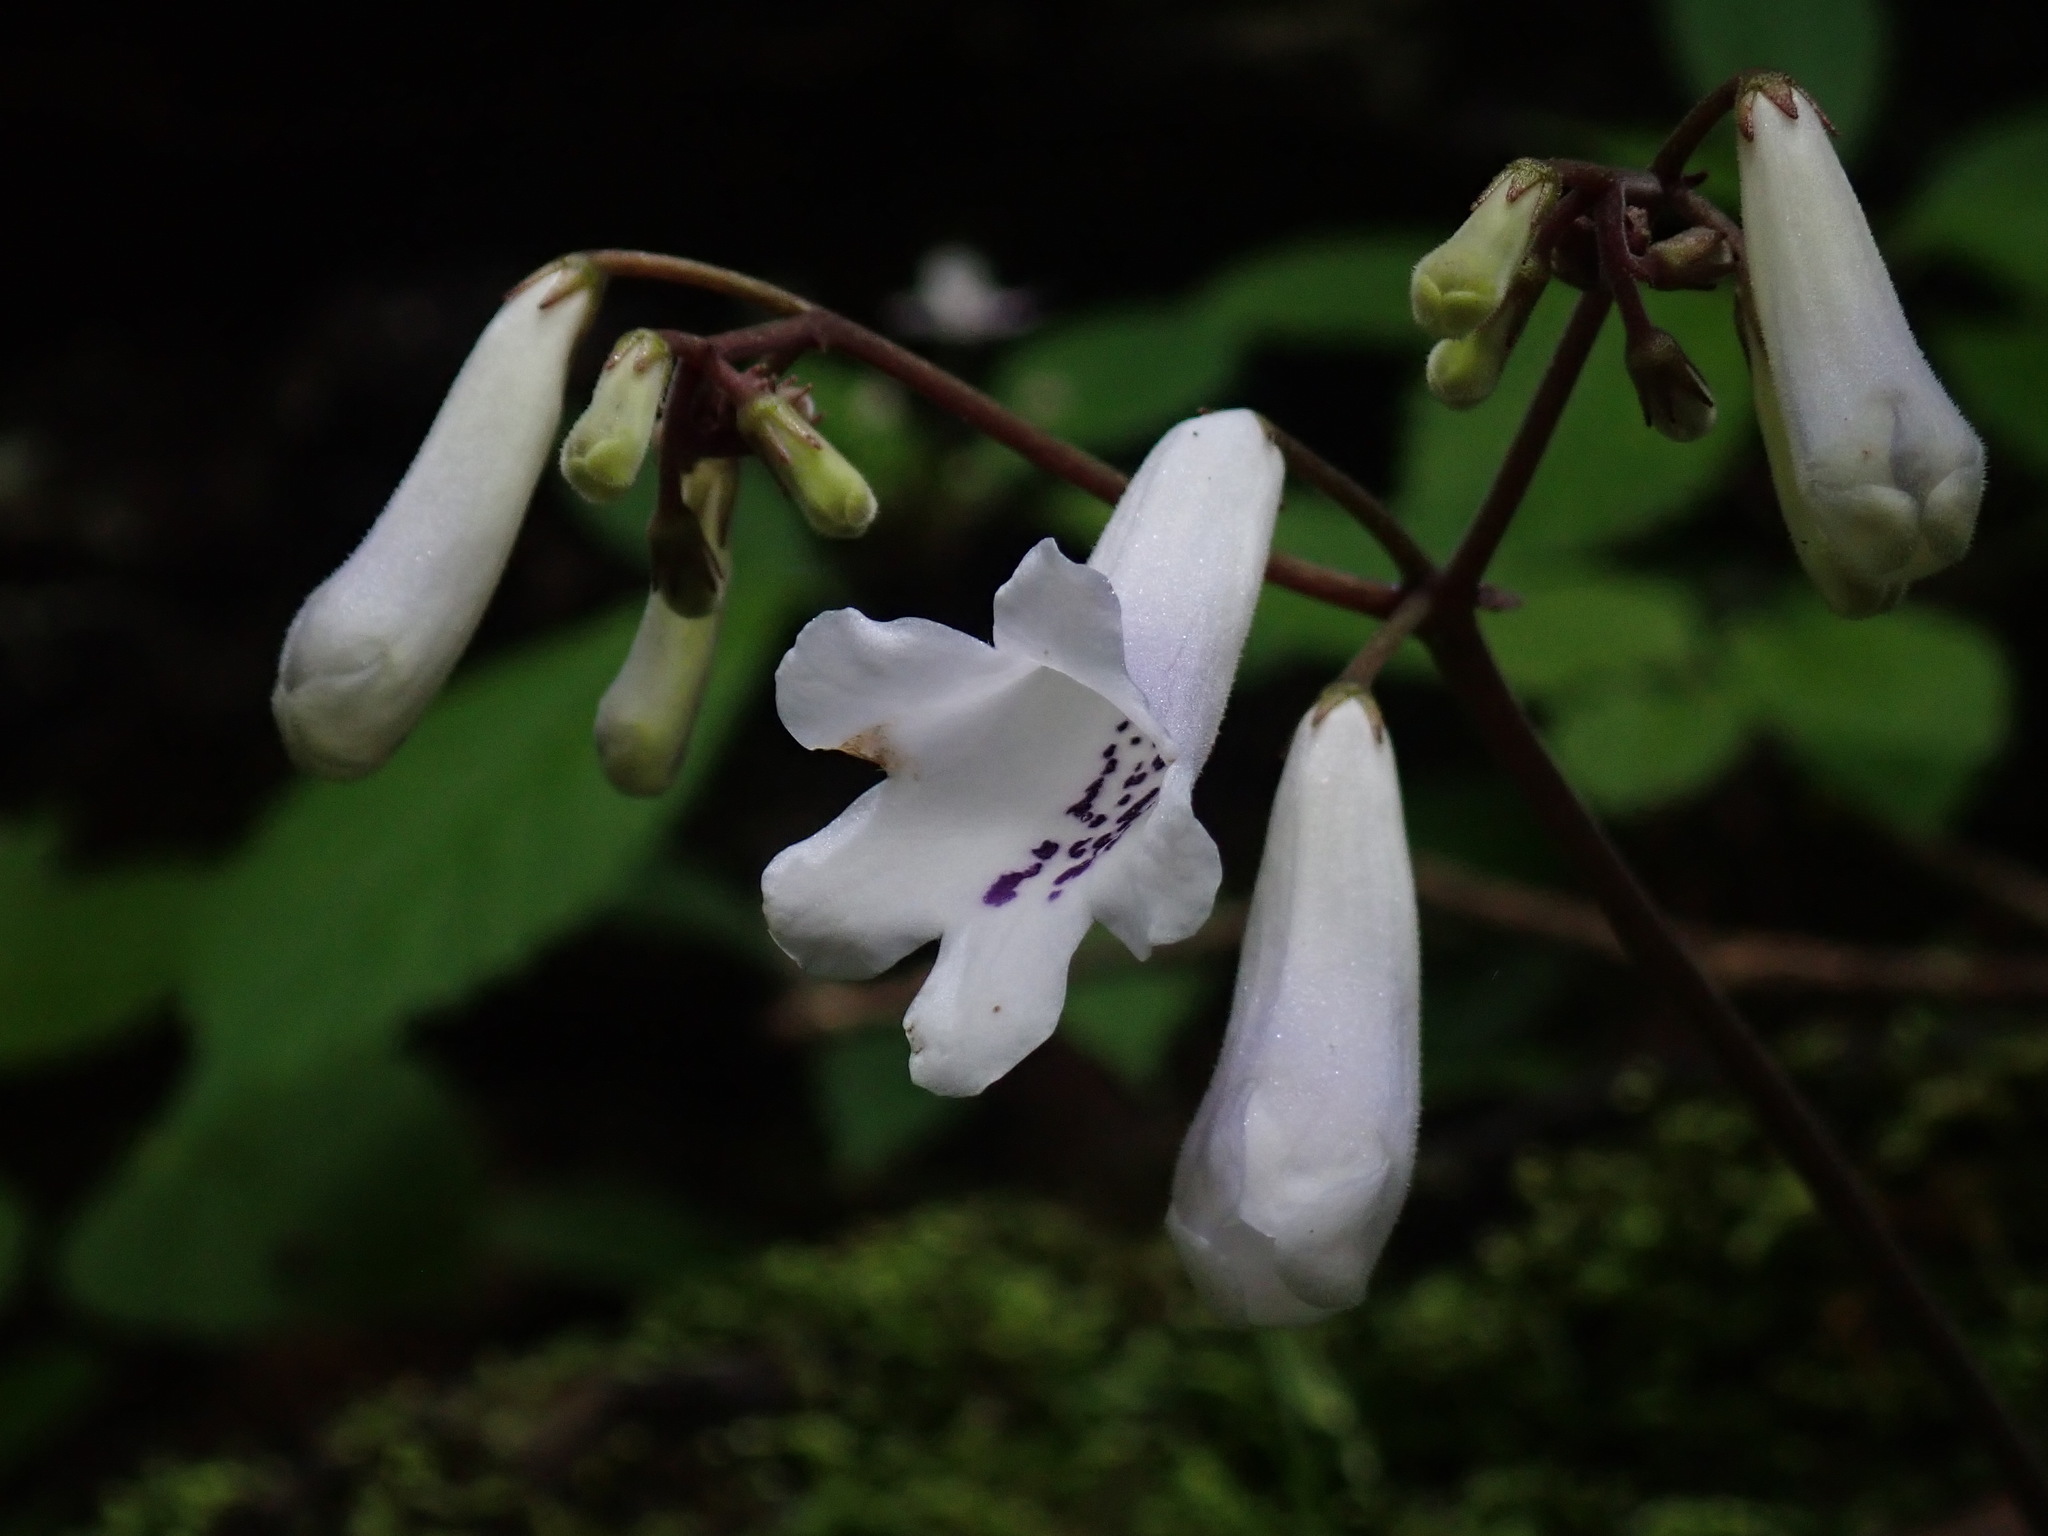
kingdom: Plantae
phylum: Tracheophyta
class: Magnoliopsida
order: Lamiales
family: Gesneriaceae
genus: Streptocarpus
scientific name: Streptocarpus wilmsii
